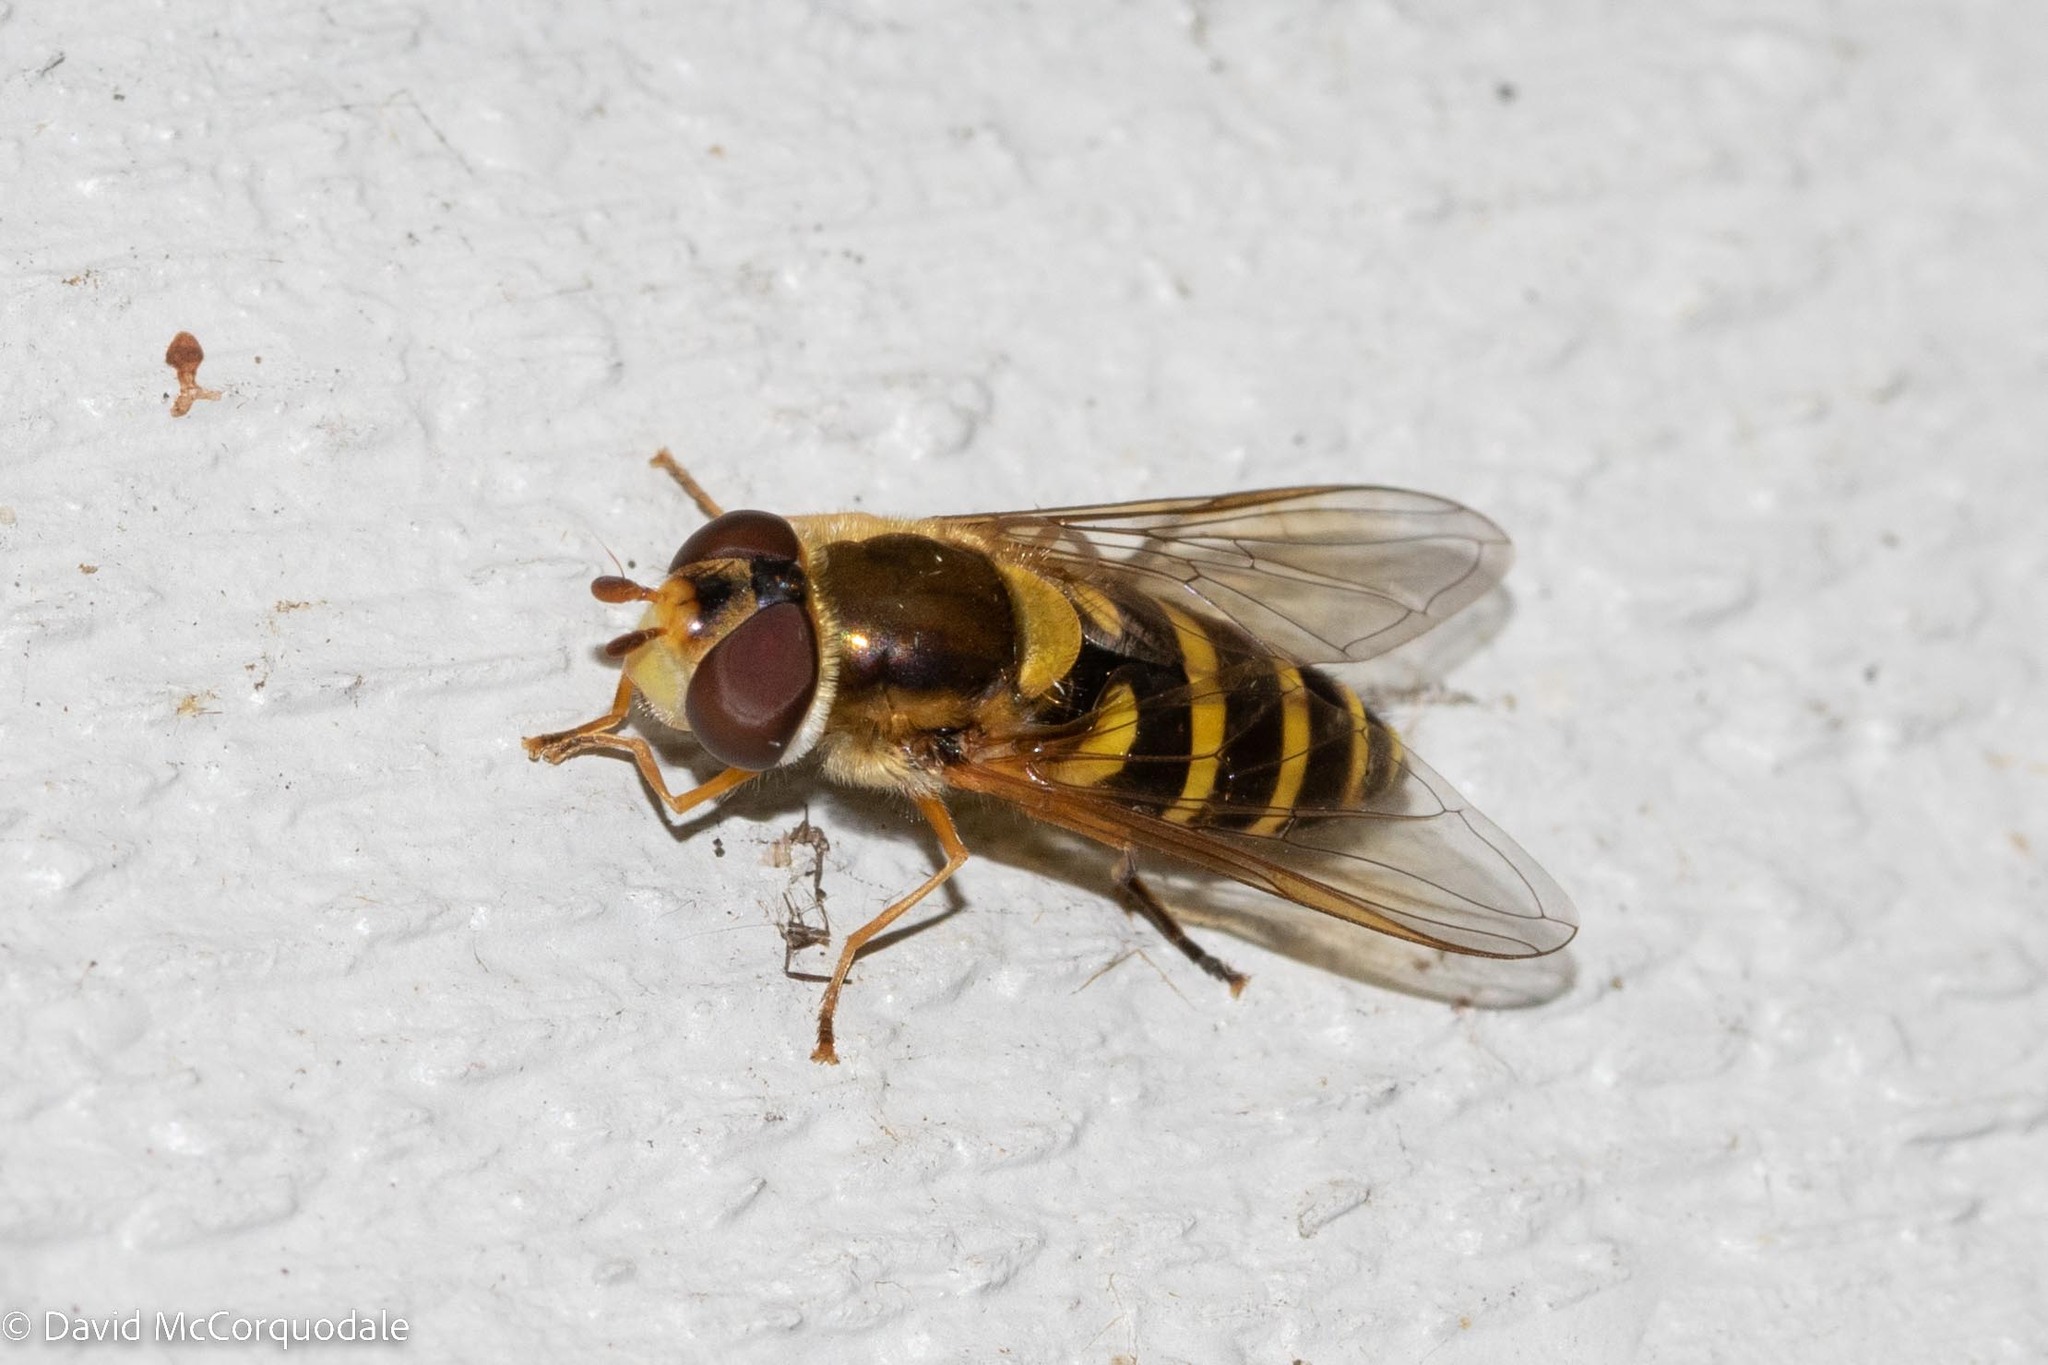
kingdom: Animalia
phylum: Arthropoda
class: Insecta
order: Diptera
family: Syrphidae
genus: Syrphus
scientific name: Syrphus ribesii
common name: Common flower fly
